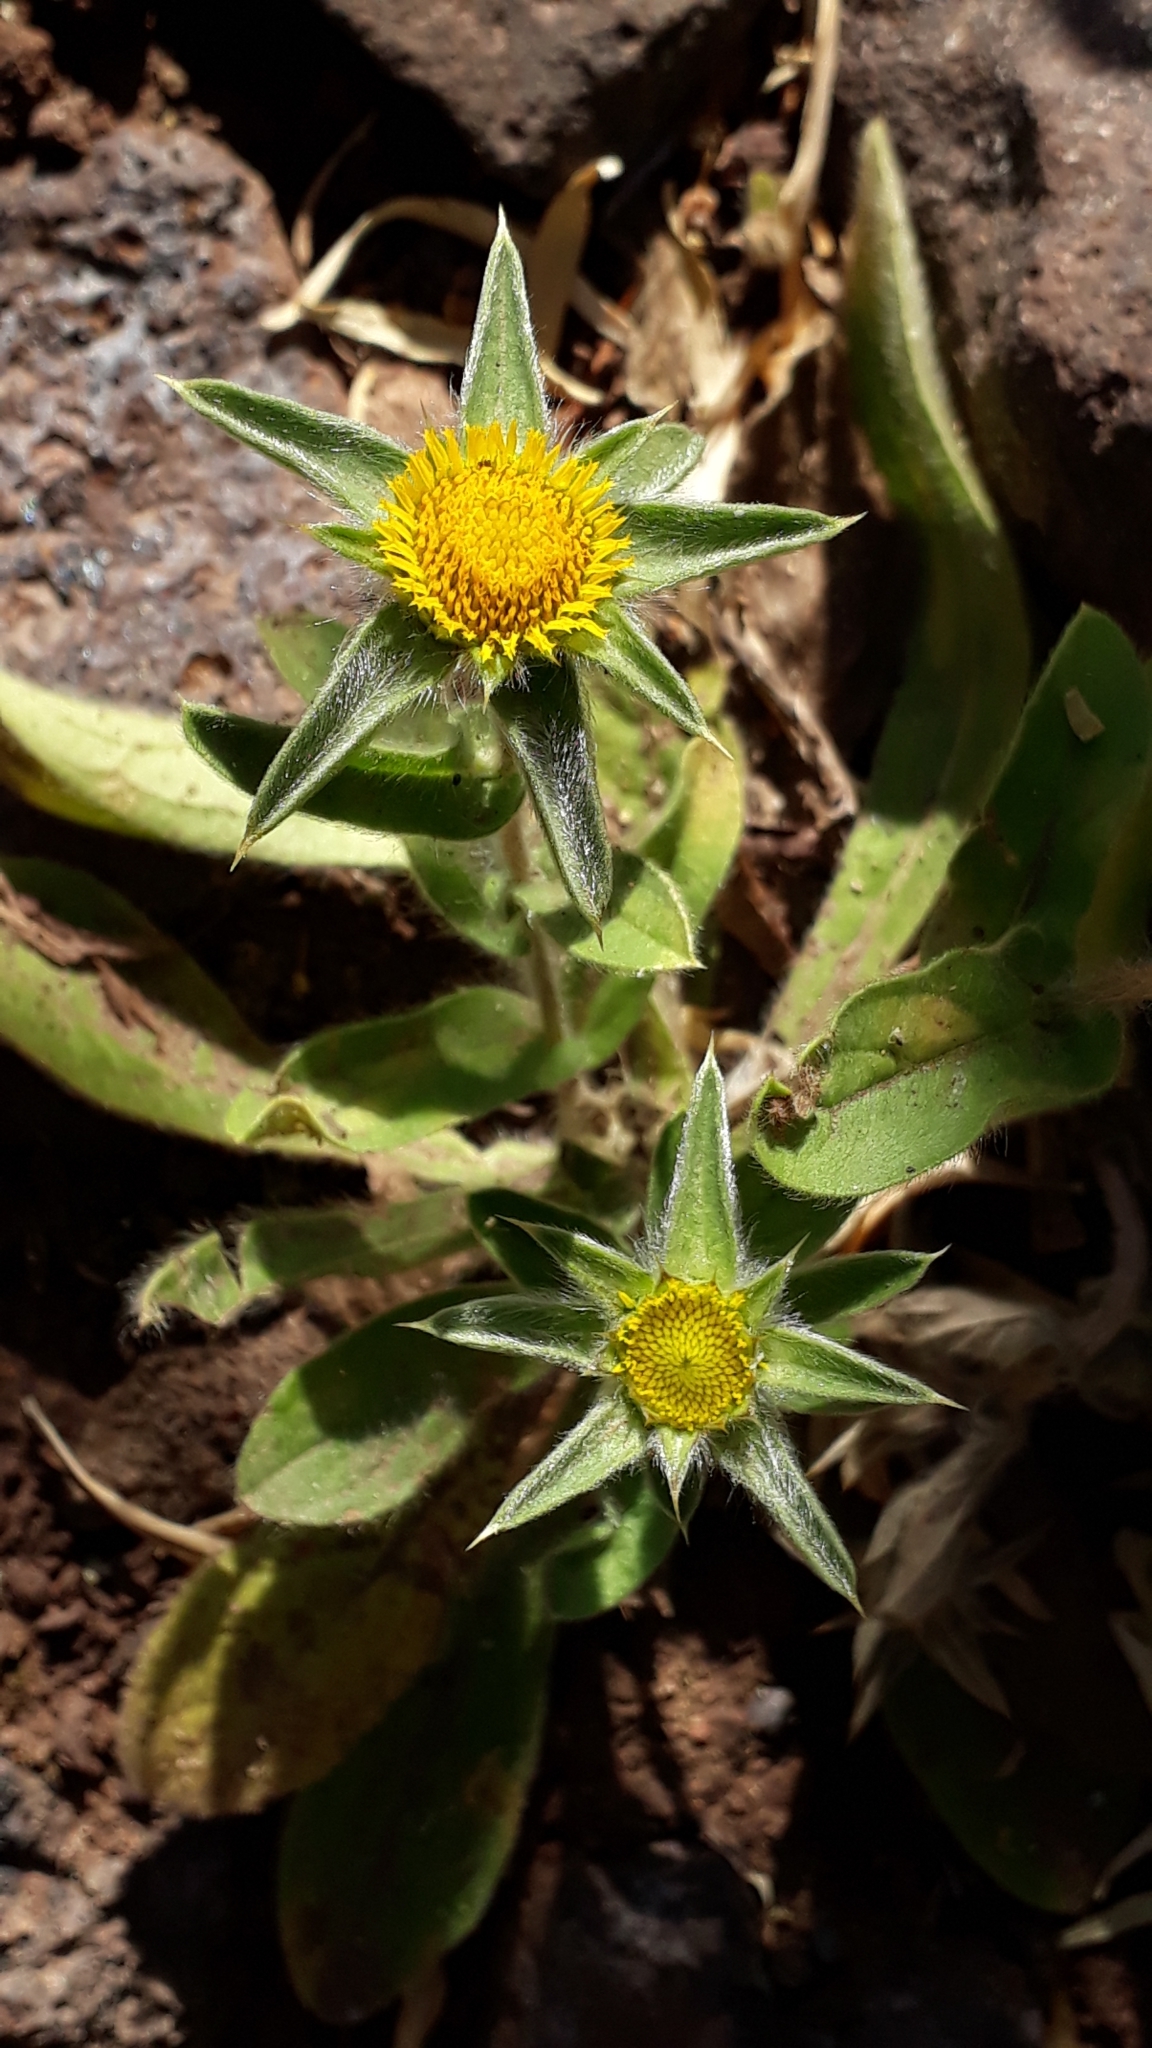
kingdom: Plantae
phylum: Tracheophyta
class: Magnoliopsida
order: Asterales
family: Asteraceae
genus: Pallenis
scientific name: Pallenis spinosa
